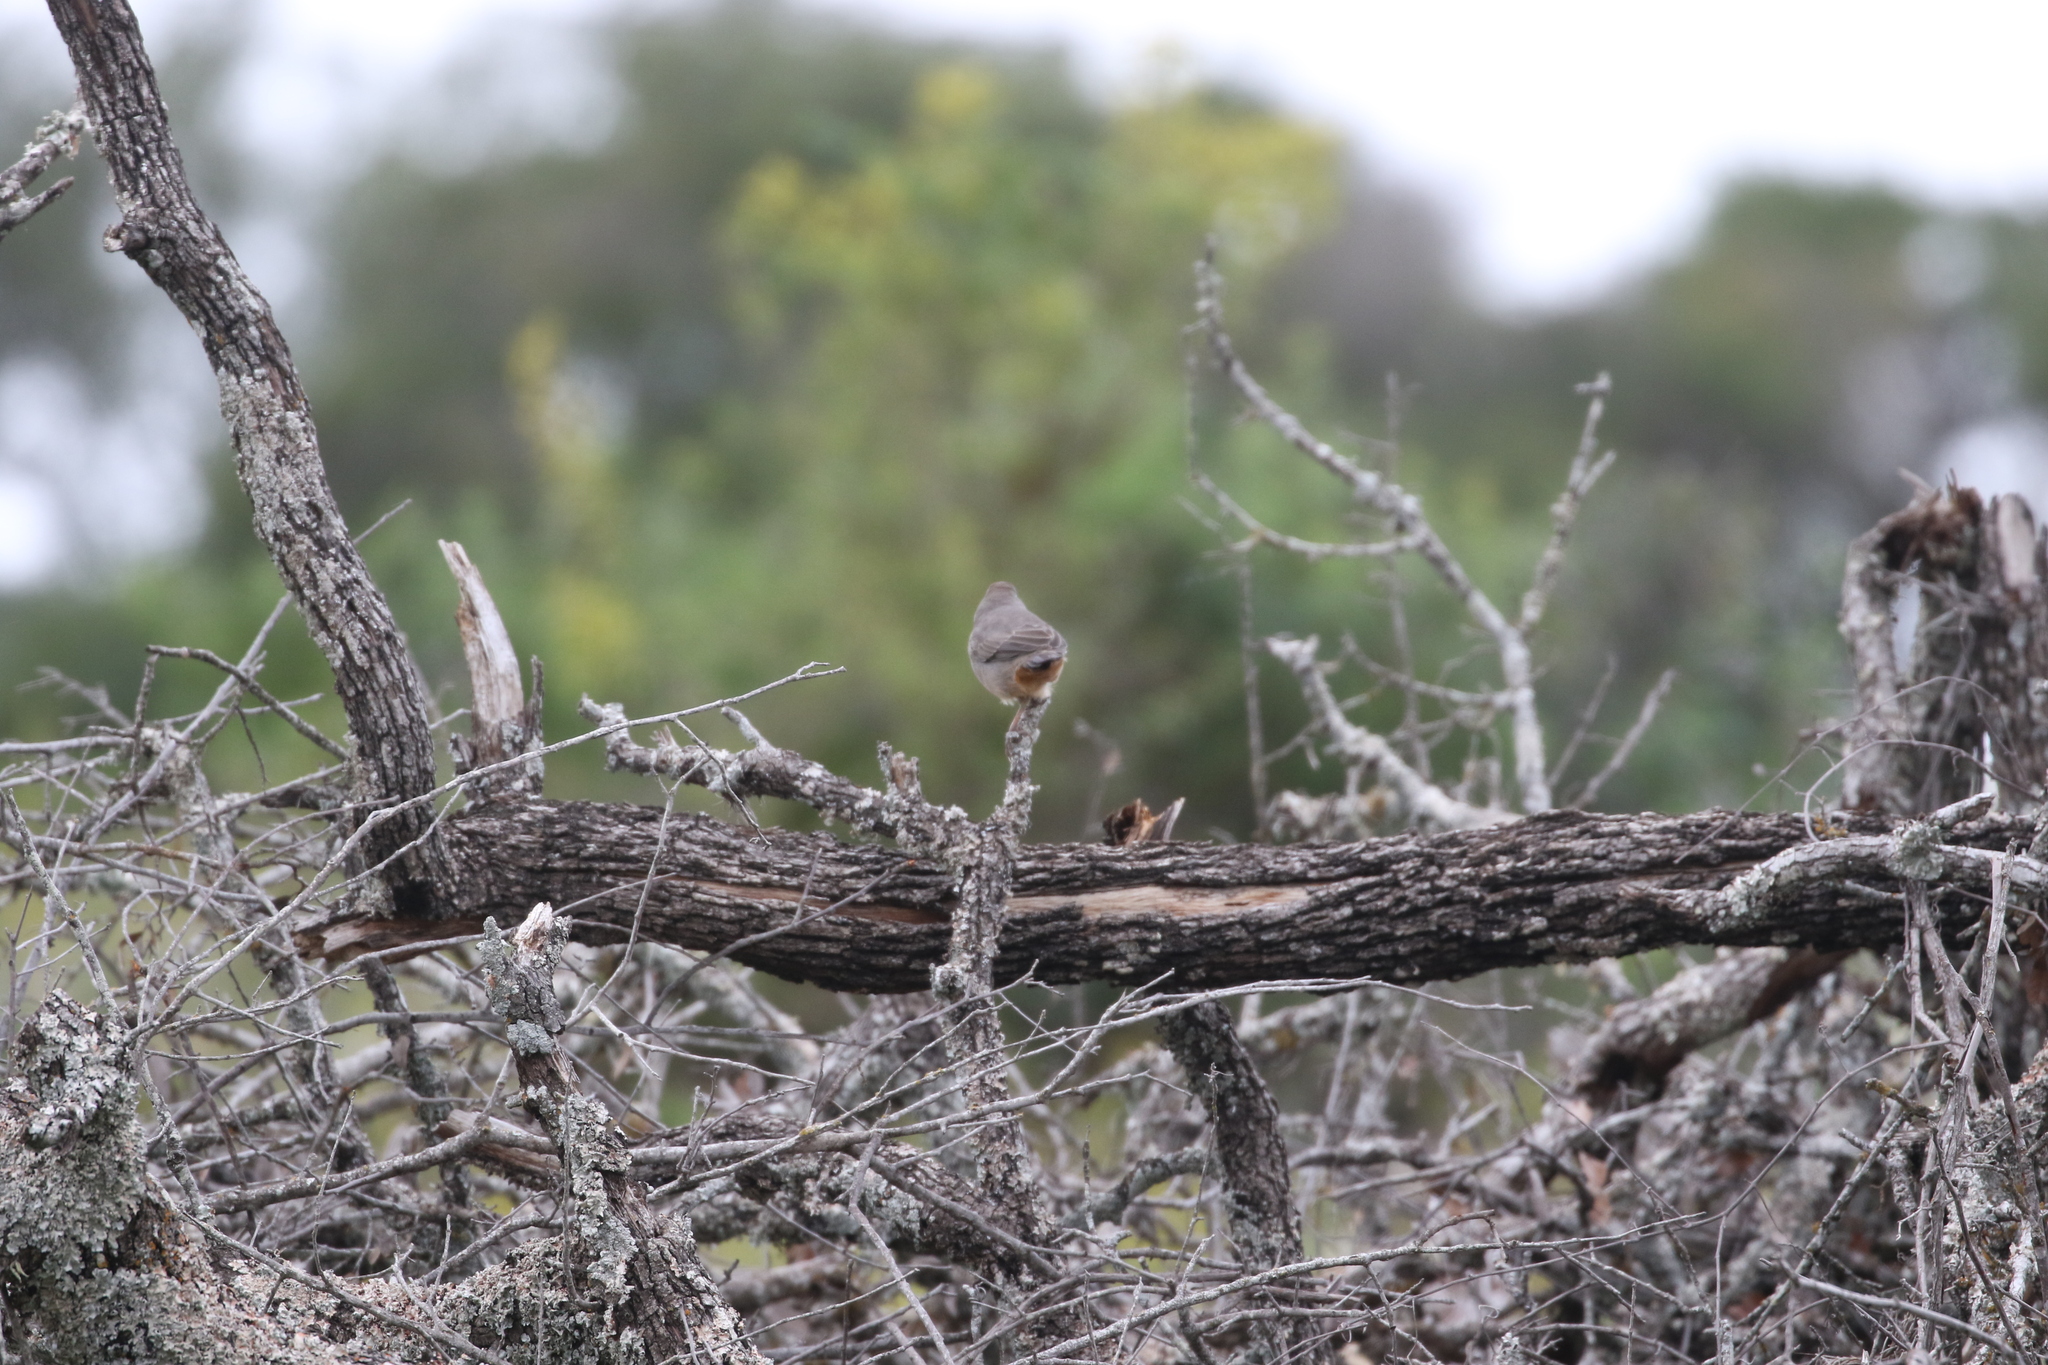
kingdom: Animalia
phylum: Chordata
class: Aves
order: Passeriformes
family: Passerellidae
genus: Melozone
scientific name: Melozone fusca
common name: Canyon towhee
